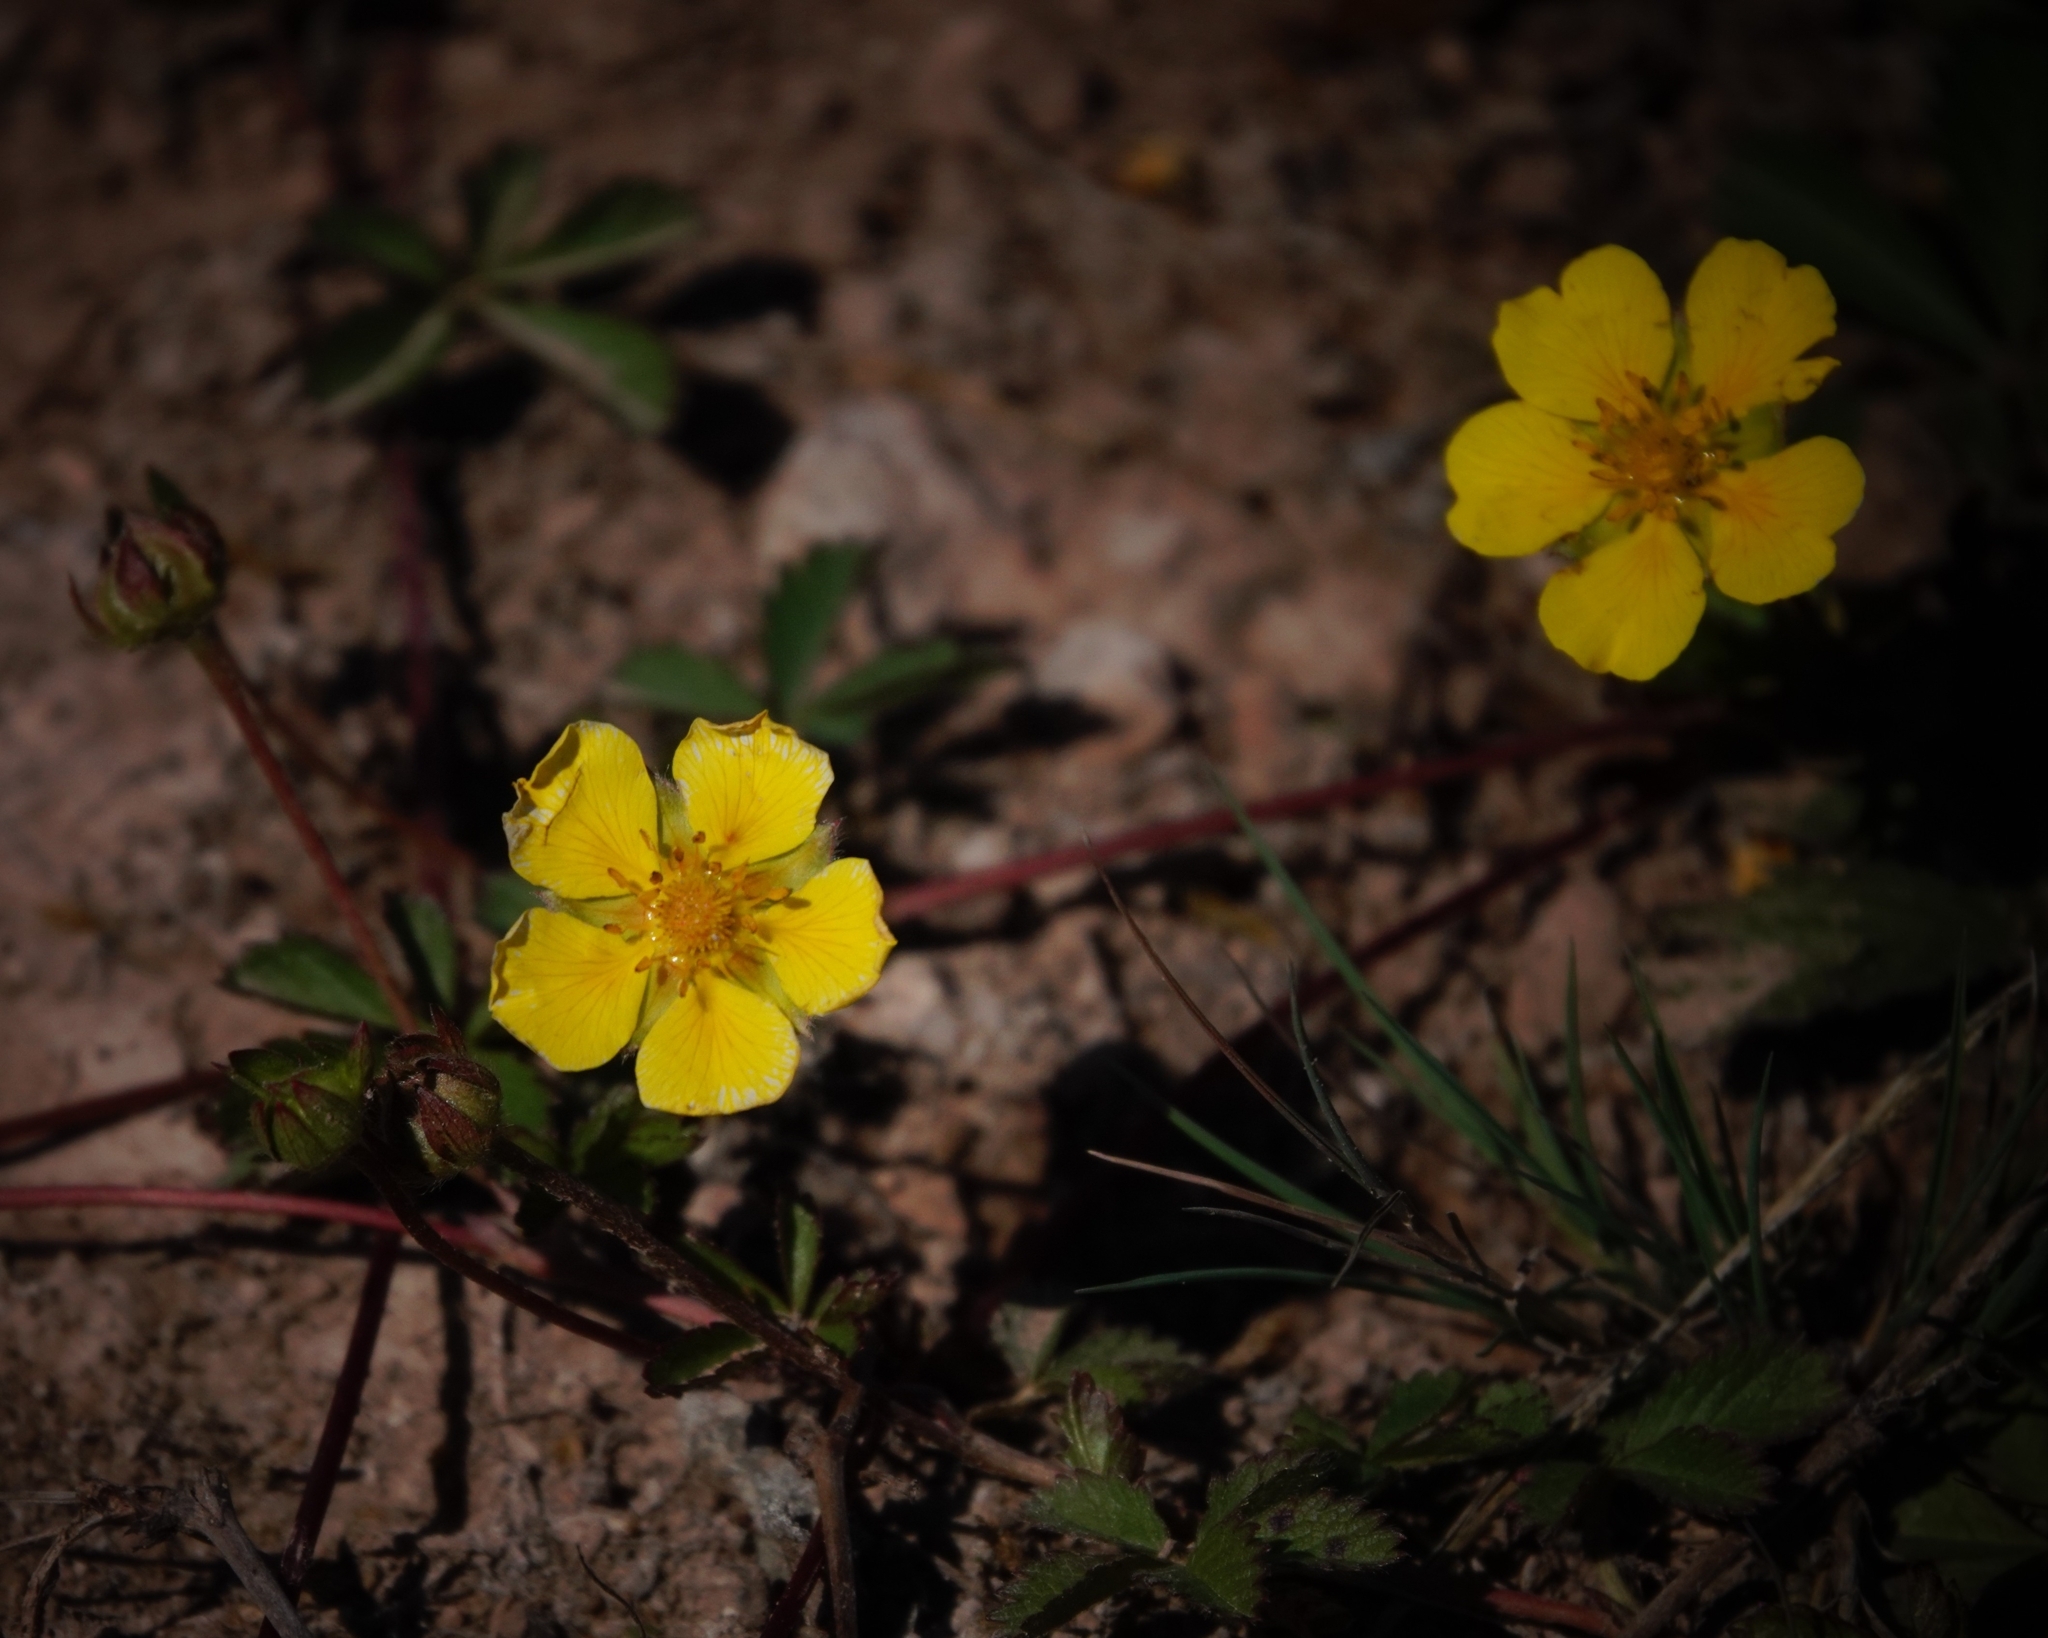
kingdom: Plantae
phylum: Tracheophyta
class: Magnoliopsida
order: Rosales
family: Rosaceae
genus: Potentilla
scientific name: Potentilla reptans
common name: Creeping cinquefoil
